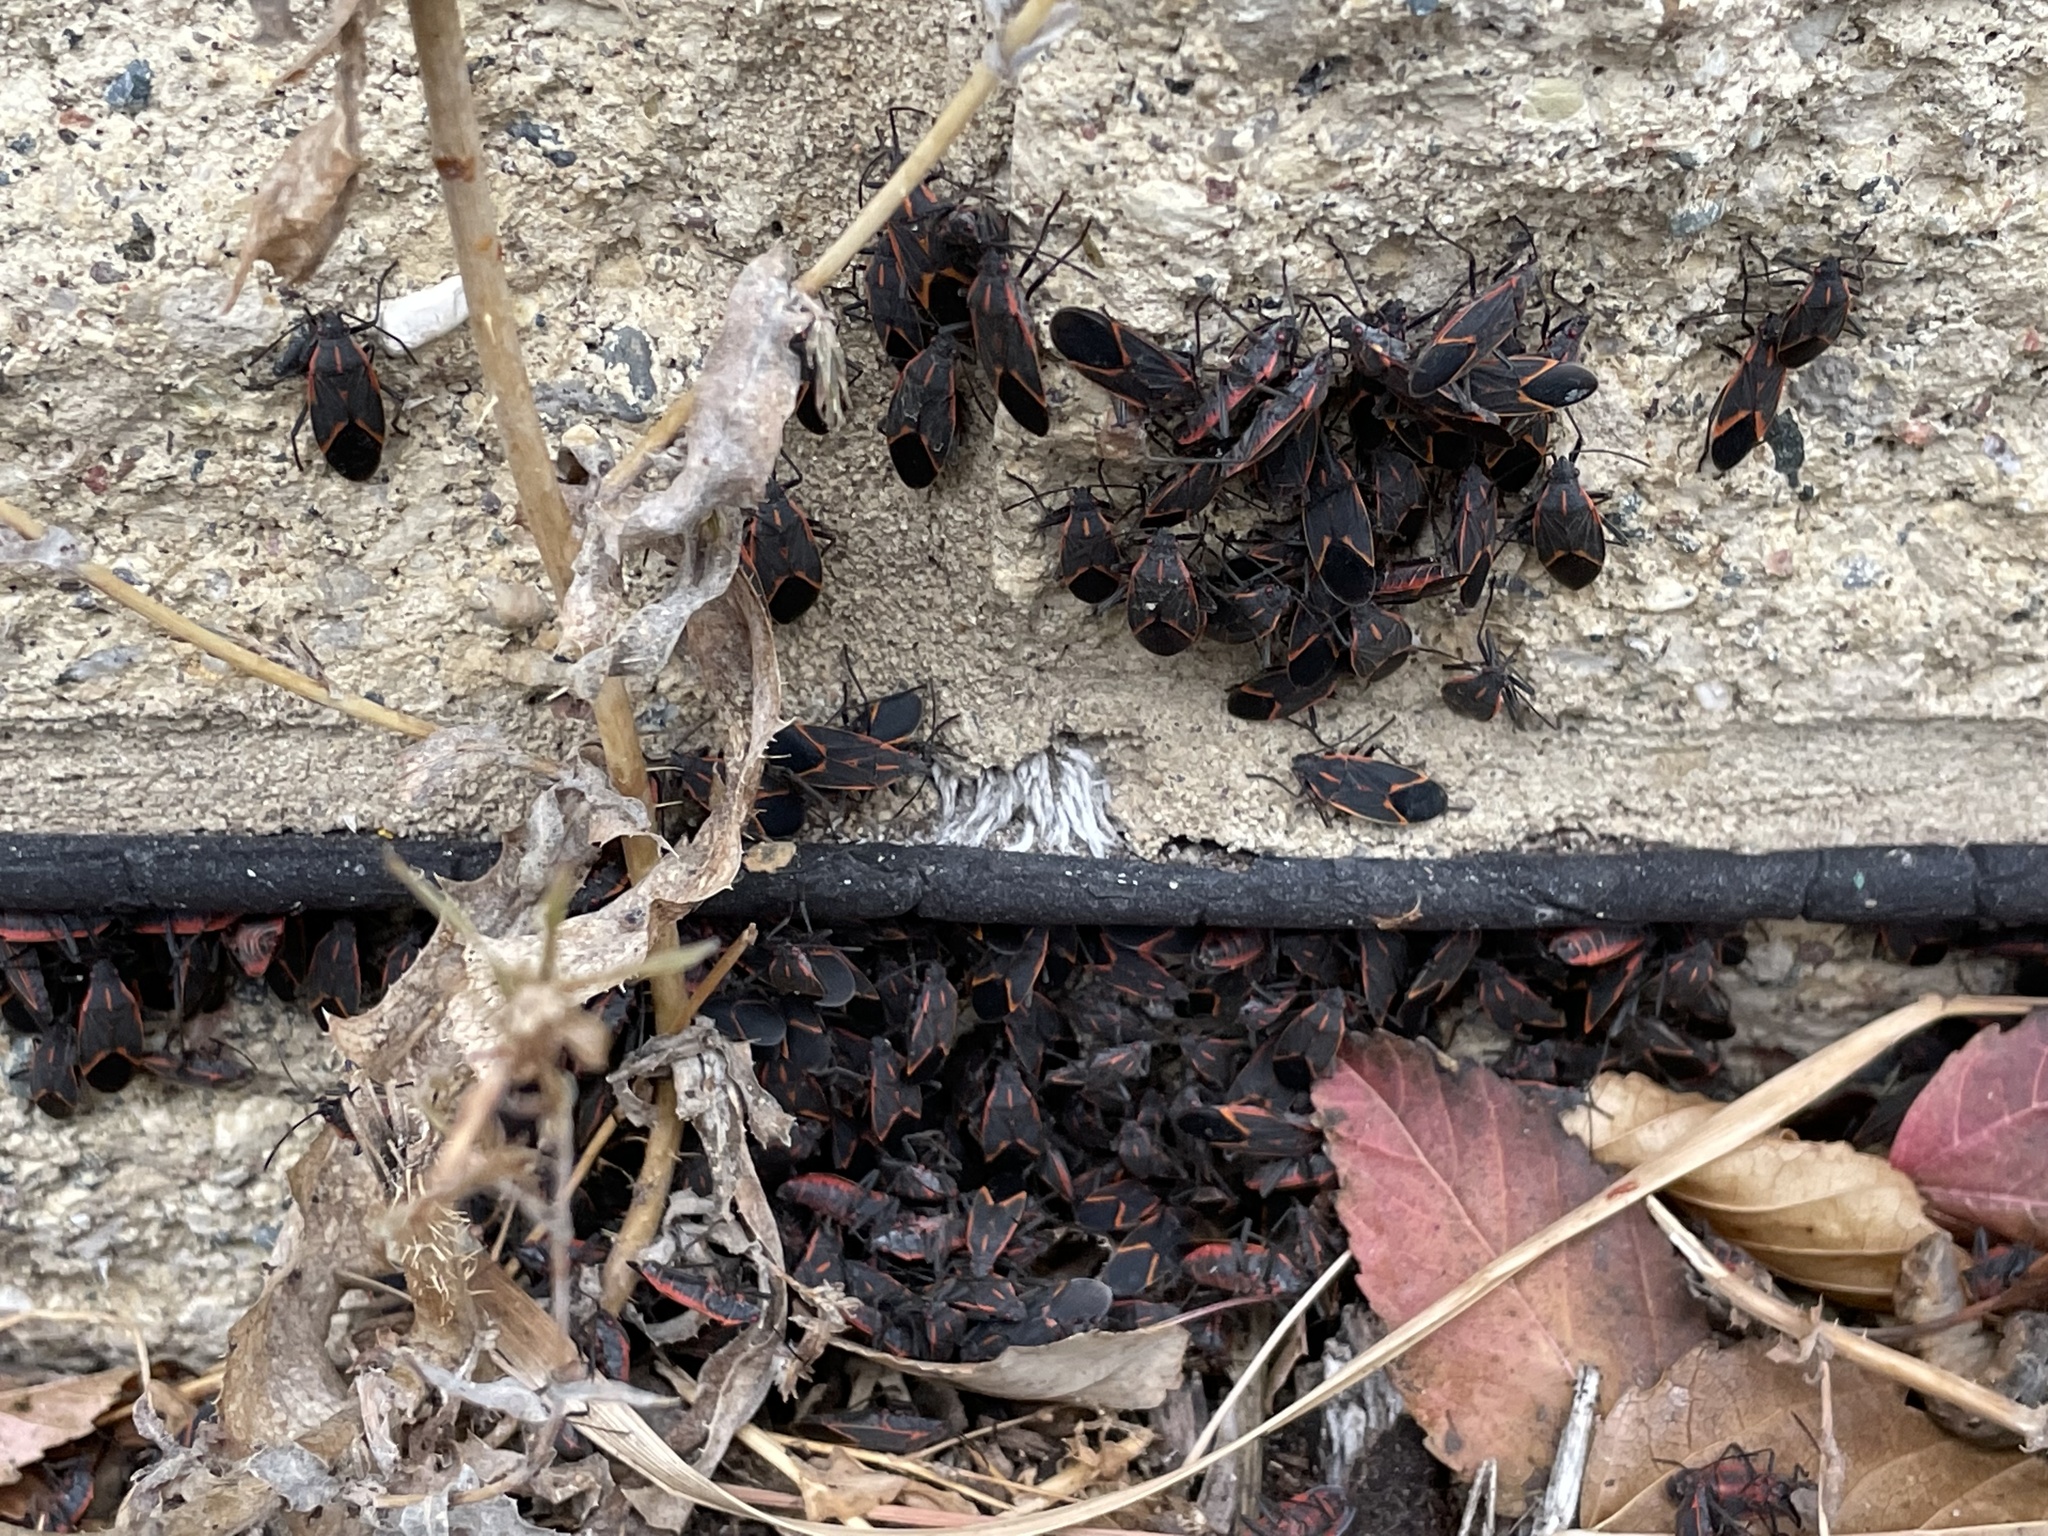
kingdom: Animalia
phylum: Arthropoda
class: Insecta
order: Hemiptera
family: Rhopalidae
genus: Boisea
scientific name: Boisea trivittata
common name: Boxelder bug
